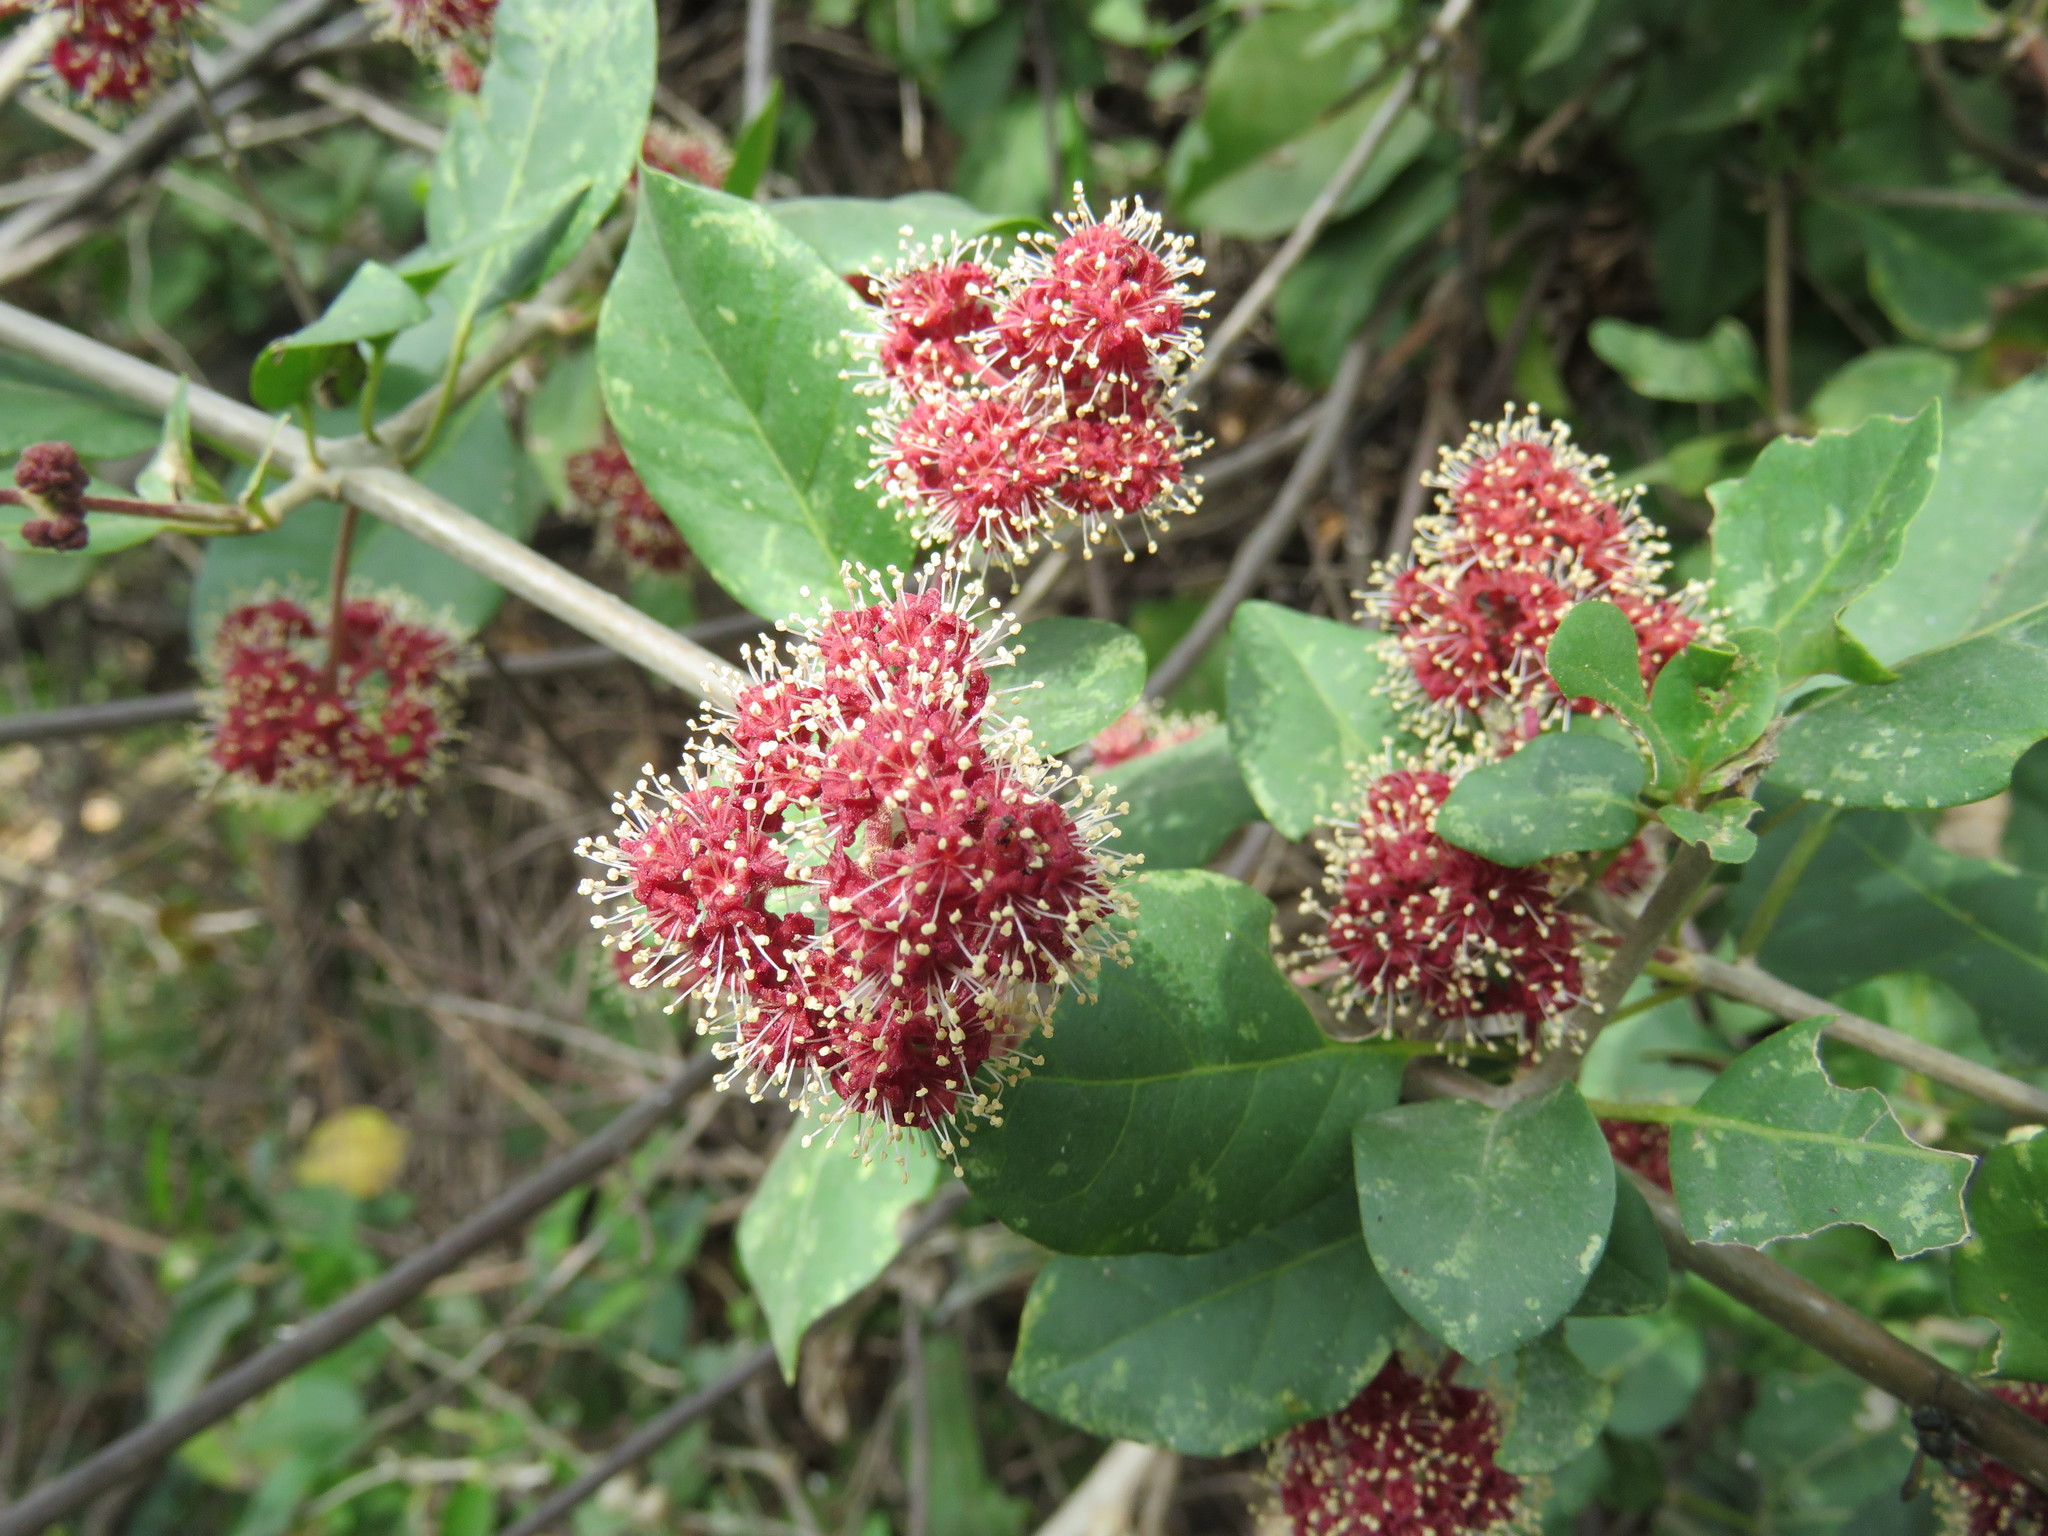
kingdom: Plantae
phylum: Tracheophyta
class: Magnoliopsida
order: Caryophyllales
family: Nyctaginaceae
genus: Pisonia
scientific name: Pisonia capitata
